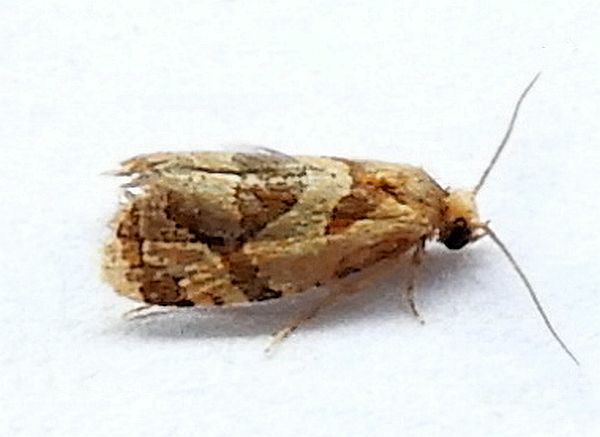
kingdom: Animalia
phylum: Arthropoda
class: Insecta
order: Lepidoptera
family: Tortricidae
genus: Hyptiharpa
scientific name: Hyptiharpa baboquavariana
